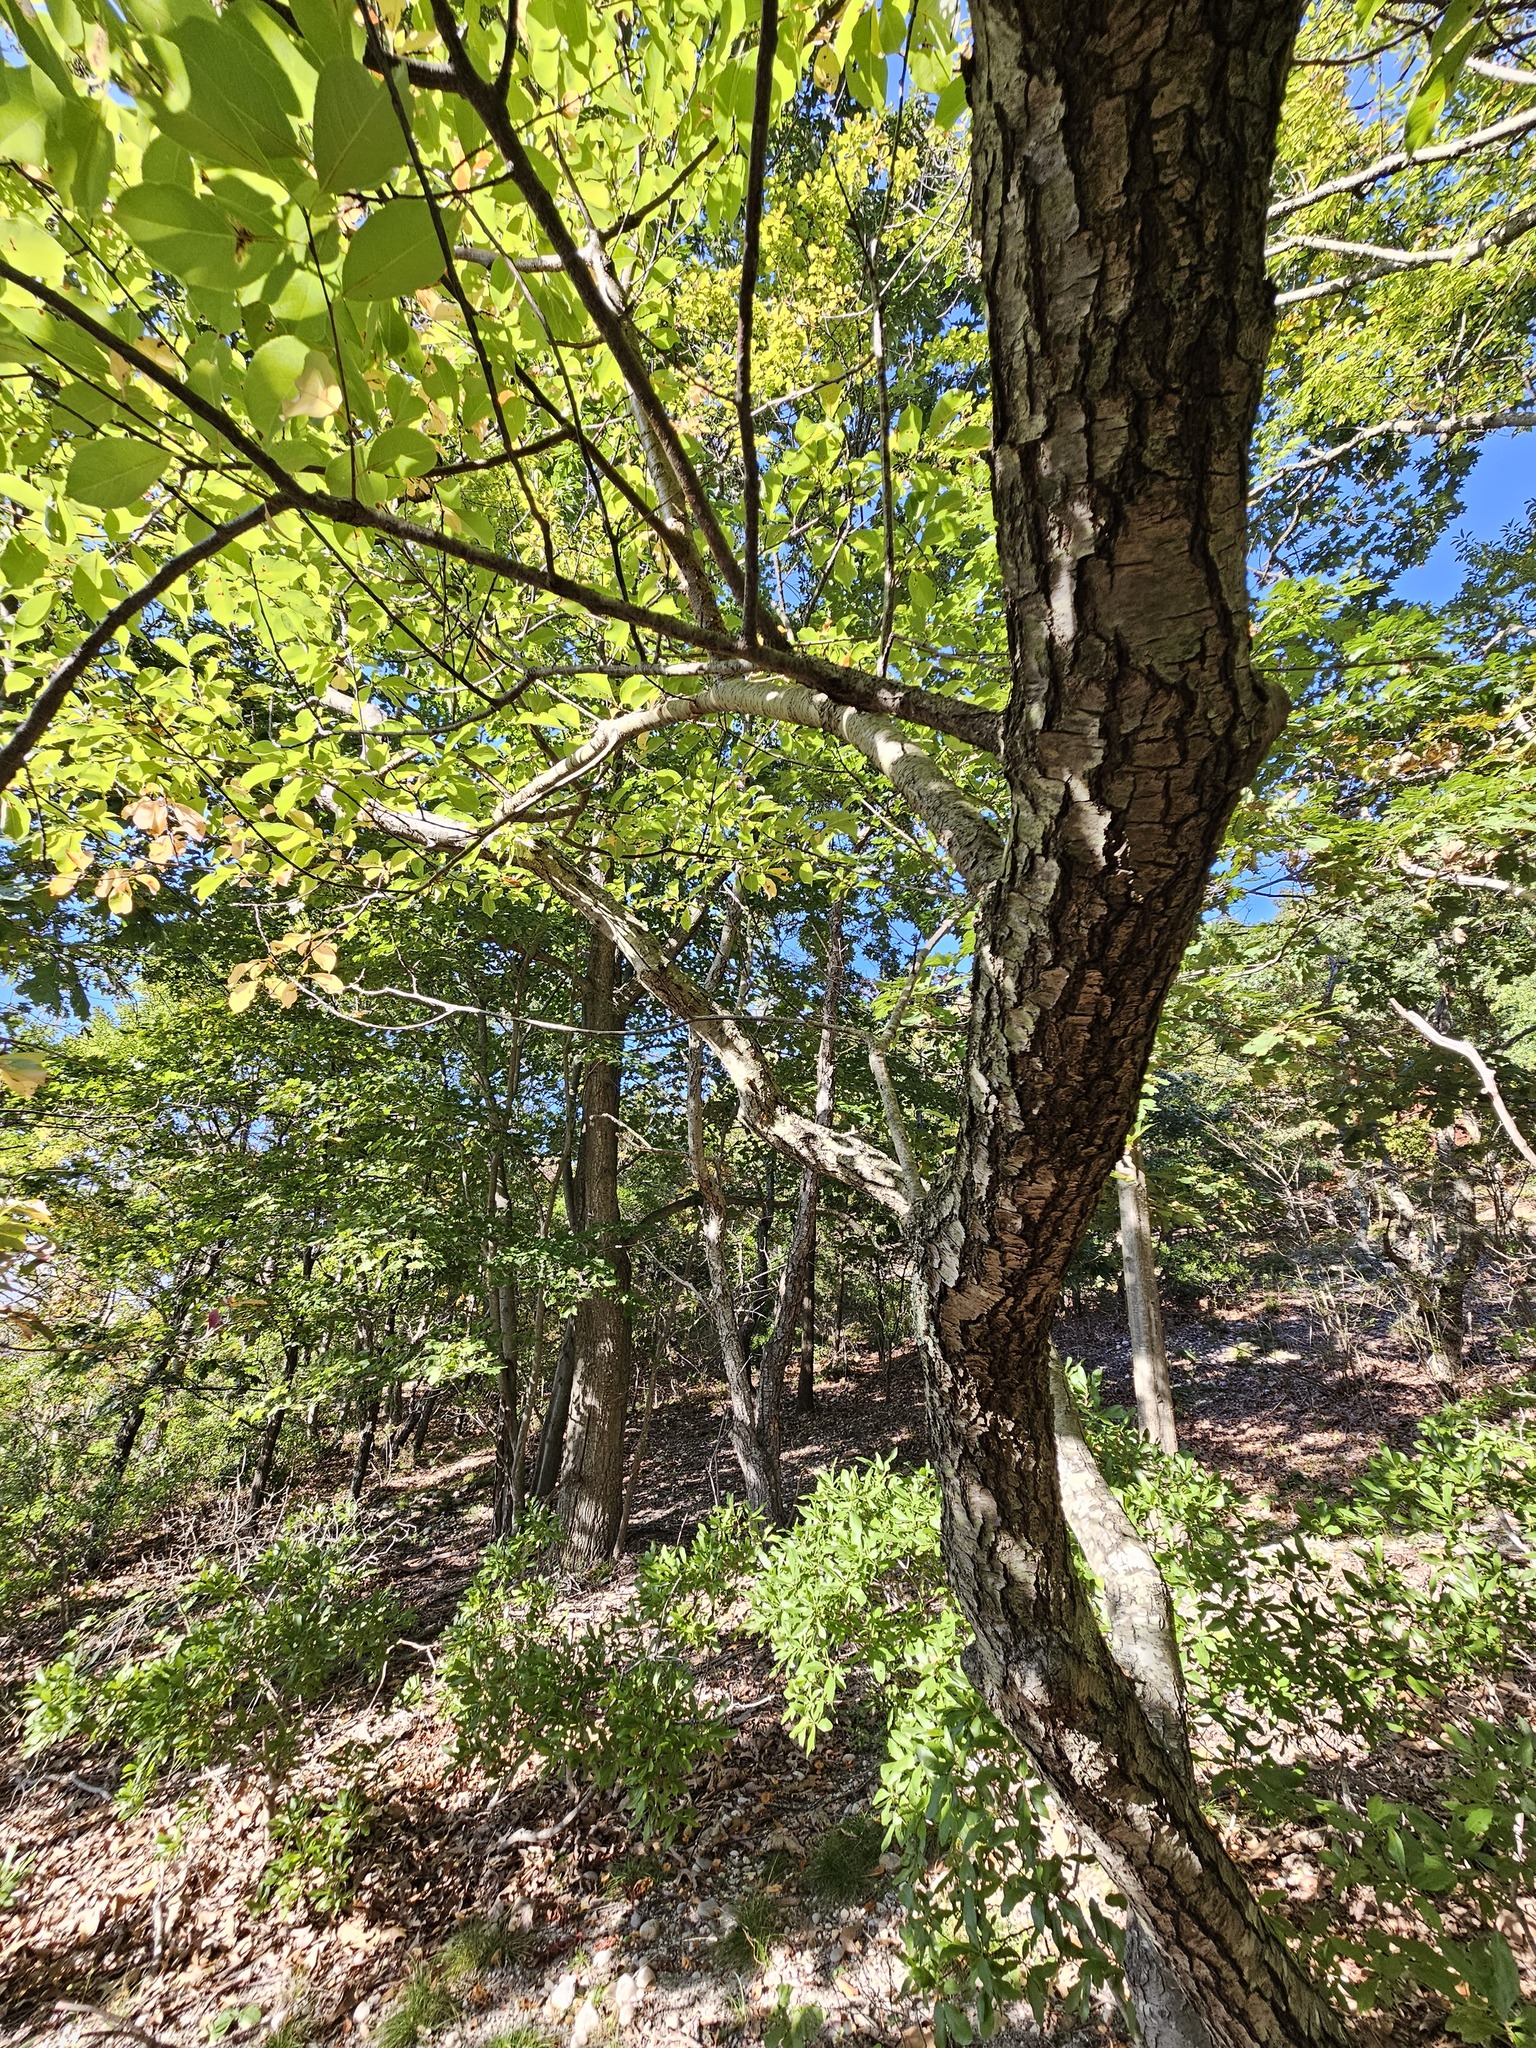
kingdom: Plantae
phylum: Tracheophyta
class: Magnoliopsida
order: Rosales
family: Rosaceae
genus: Prunus
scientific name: Prunus serotina
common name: Black cherry
